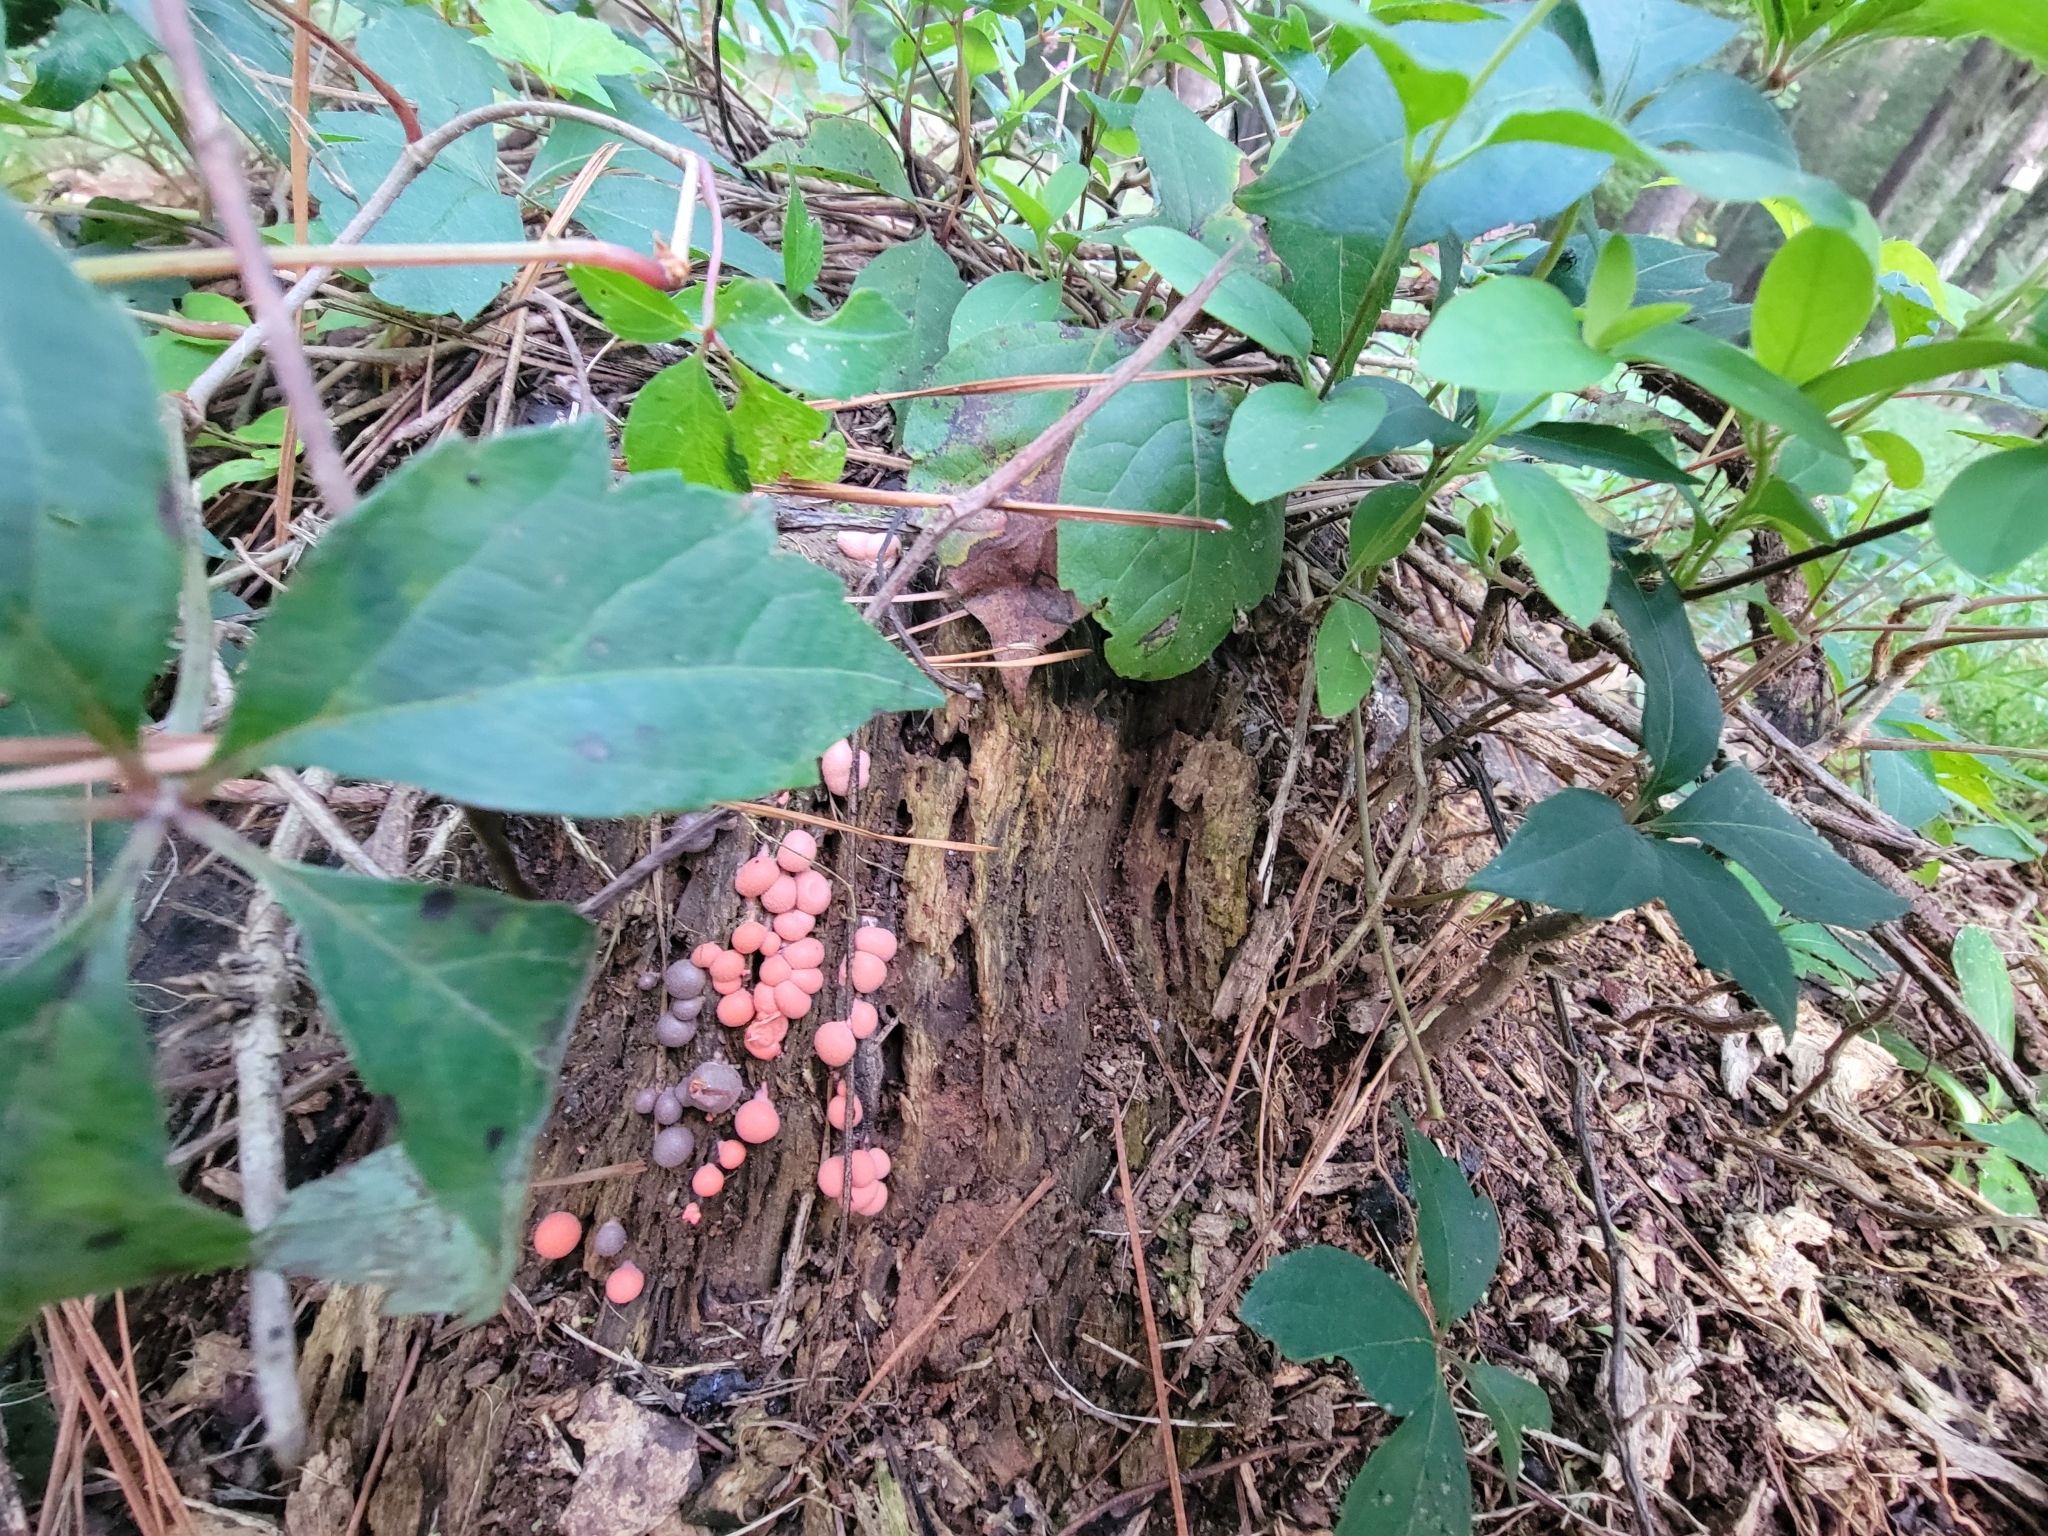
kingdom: Protozoa
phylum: Mycetozoa
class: Myxomycetes
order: Cribrariales
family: Tubiferaceae
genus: Lycogala
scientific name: Lycogala epidendrum
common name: Wolf's milk
